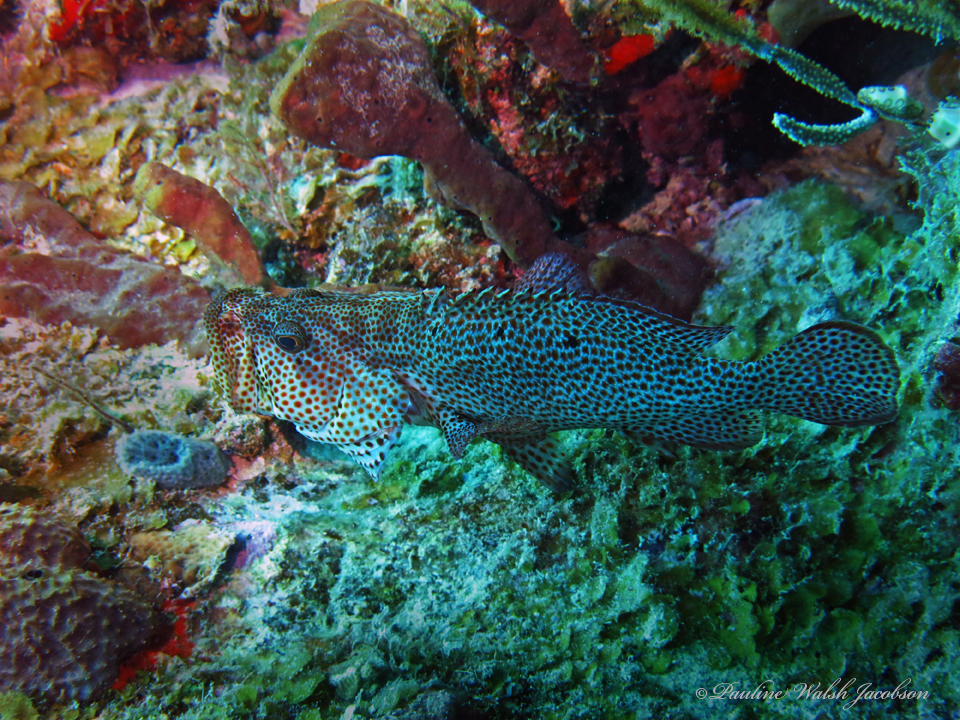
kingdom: Animalia
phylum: Chordata
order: Perciformes
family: Serranidae
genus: Cephalopholis
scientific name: Cephalopholis cruentata
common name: Graysby
